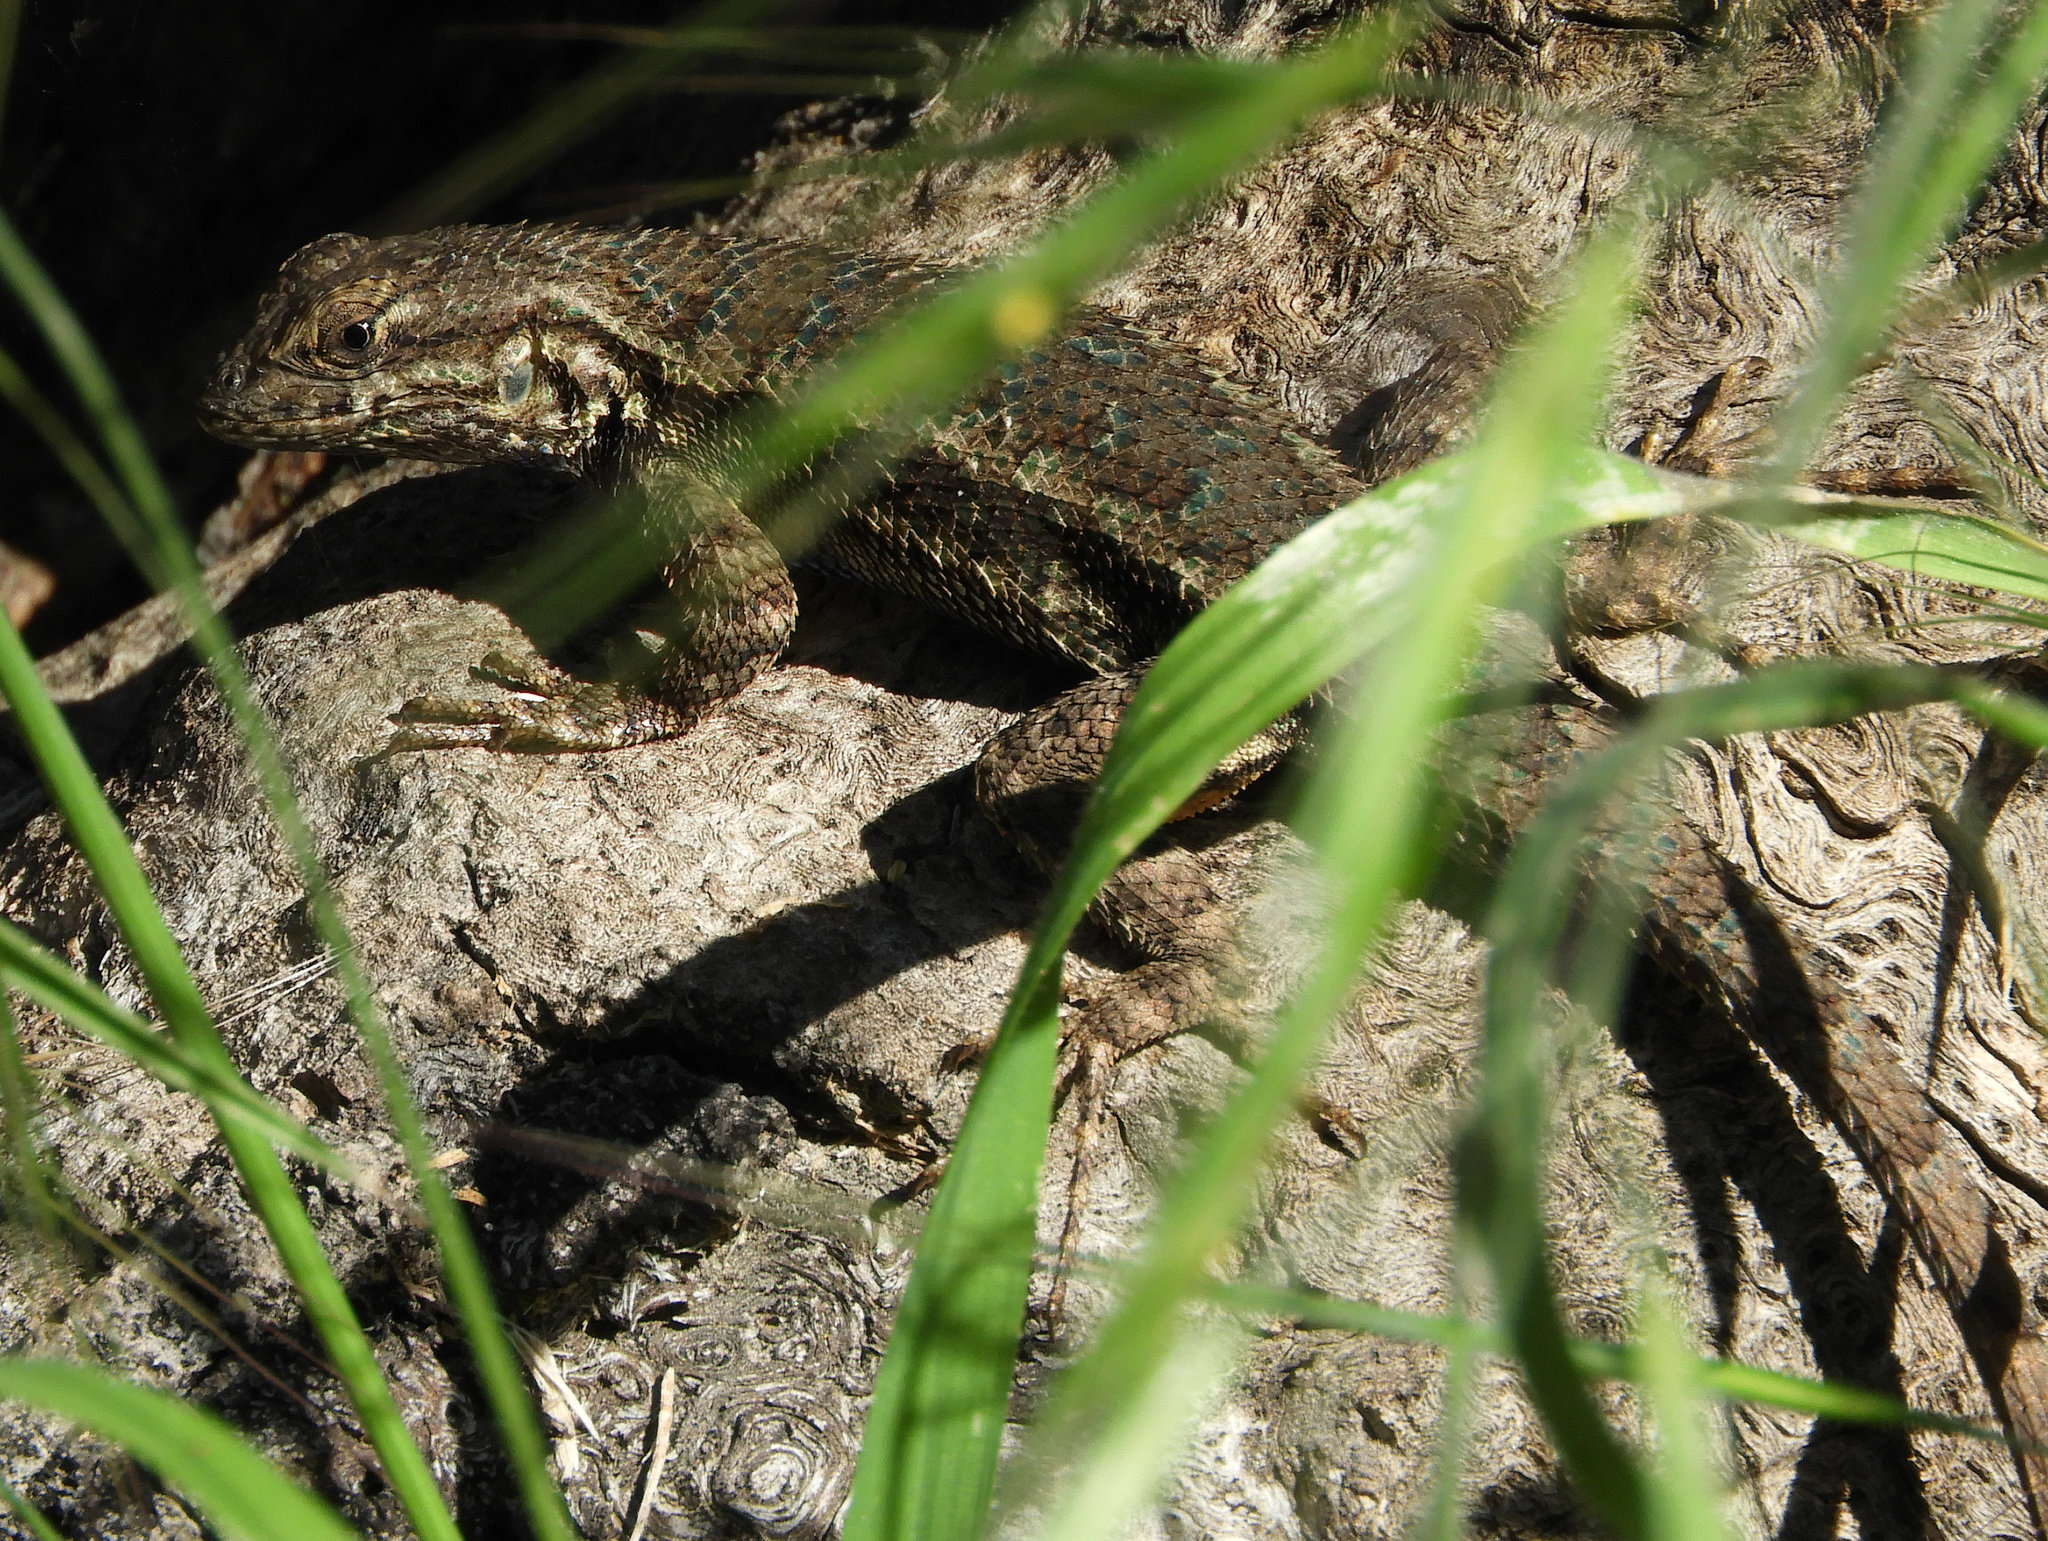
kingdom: Animalia
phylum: Chordata
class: Squamata
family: Phrynosomatidae
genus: Sceloporus
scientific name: Sceloporus occidentalis
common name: Western fence lizard
